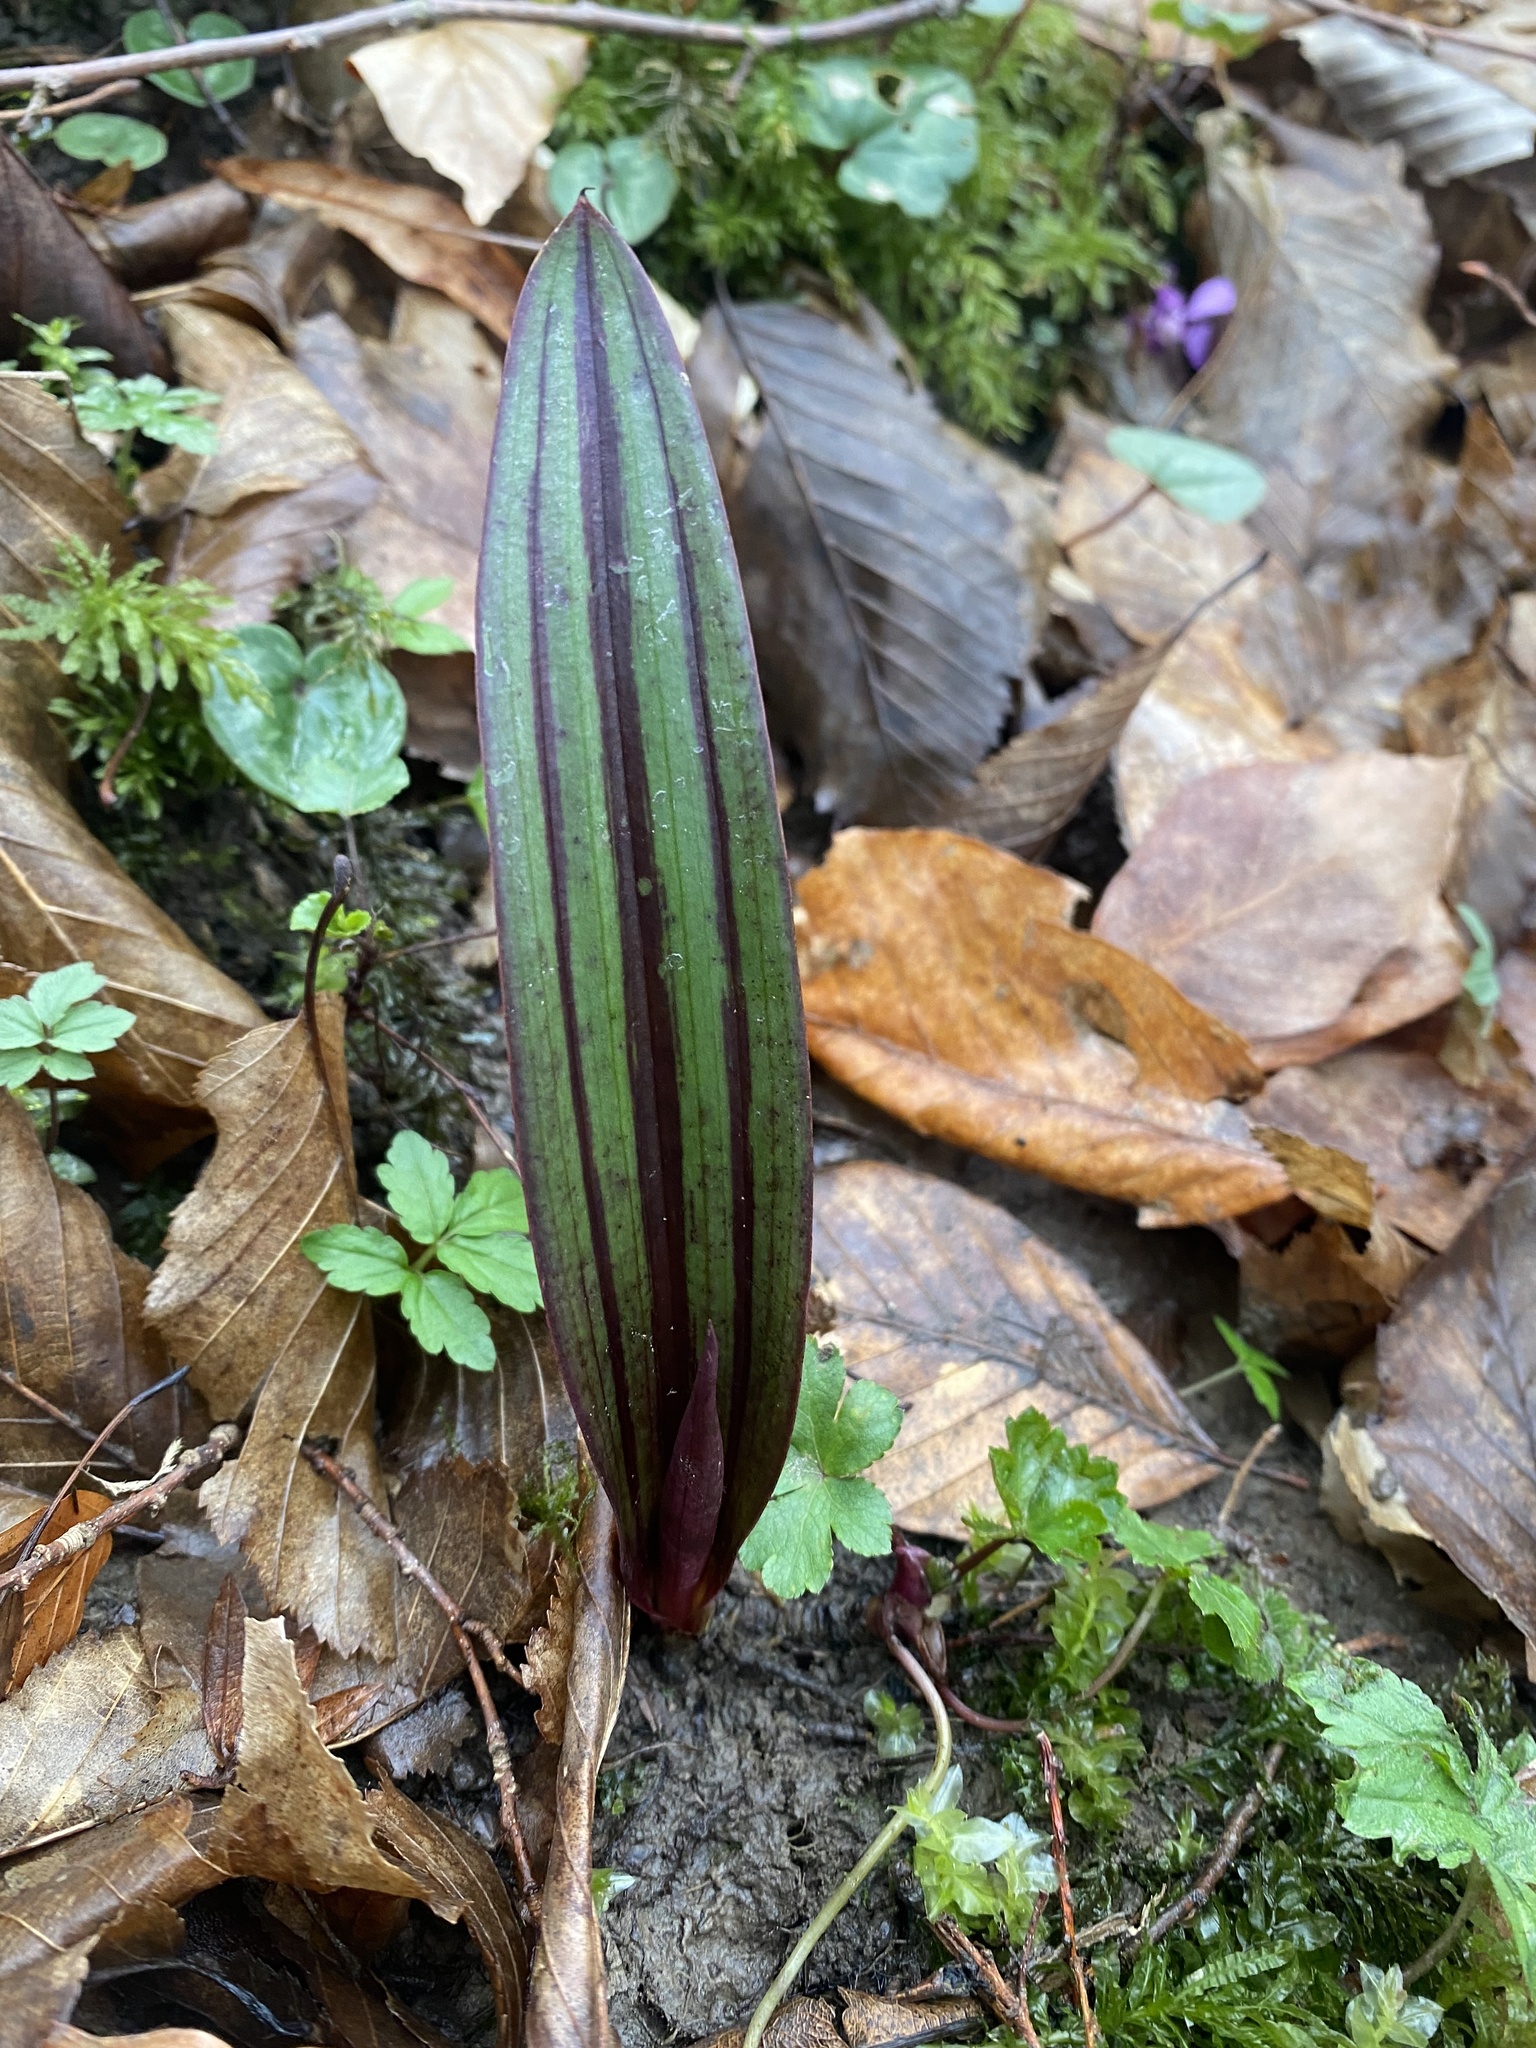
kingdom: Plantae
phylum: Tracheophyta
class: Liliopsida
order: Asparagales
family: Orchidaceae
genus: Steveniella
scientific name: Steveniella satyrioides
